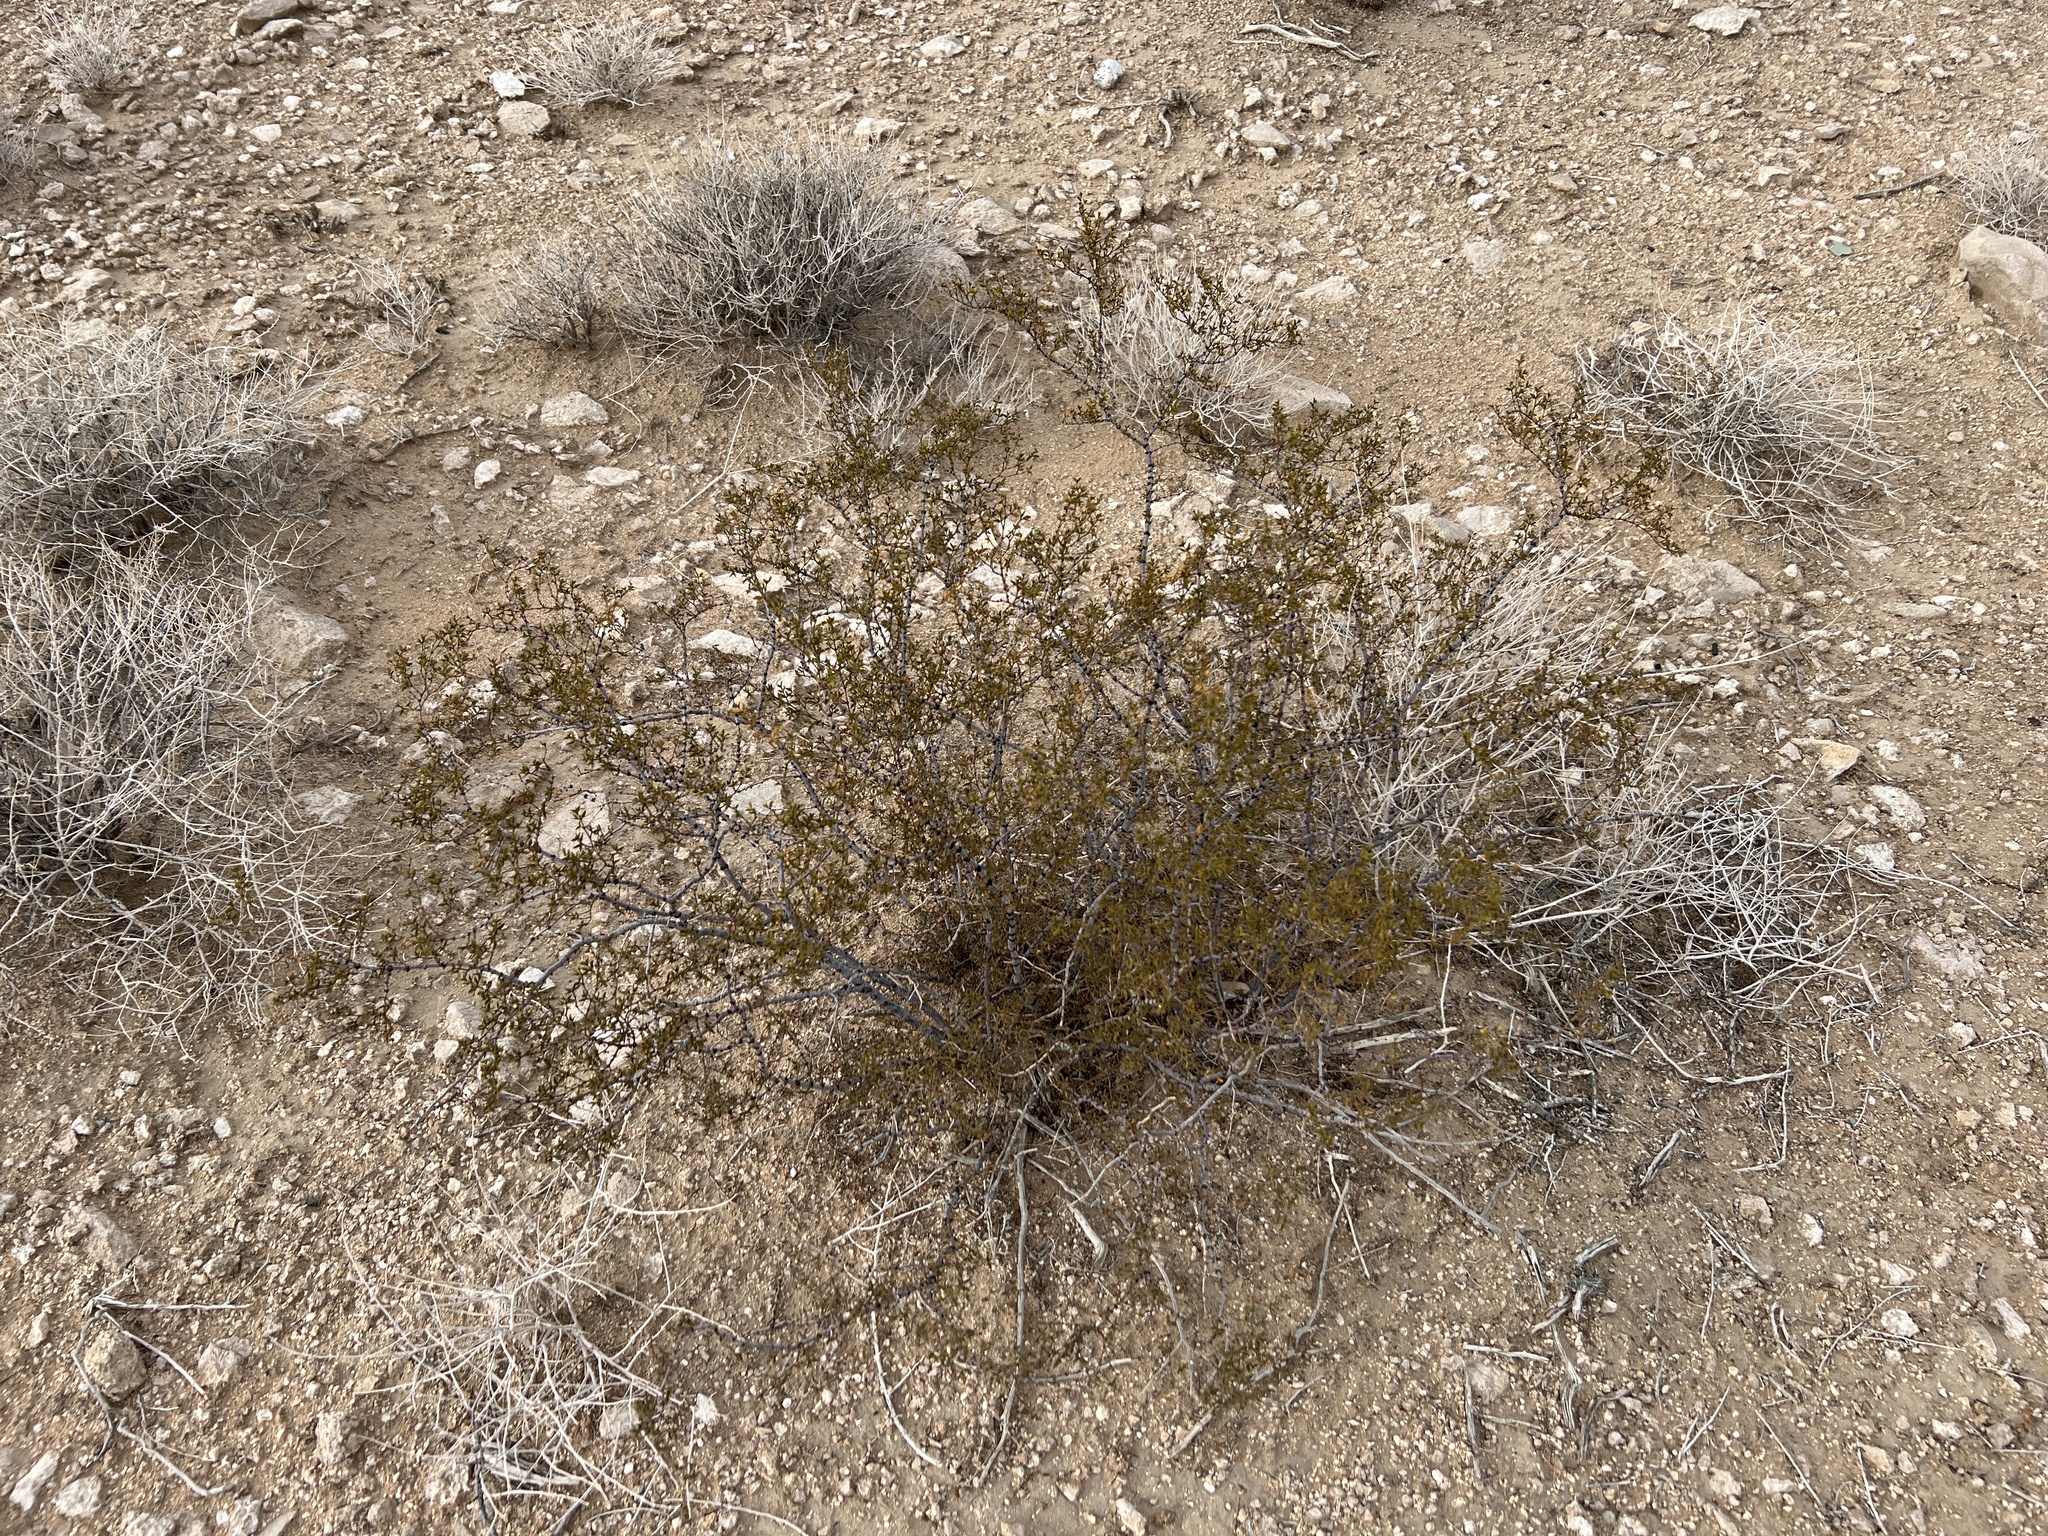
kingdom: Plantae
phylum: Tracheophyta
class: Magnoliopsida
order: Zygophyllales
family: Zygophyllaceae
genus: Larrea
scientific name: Larrea tridentata
